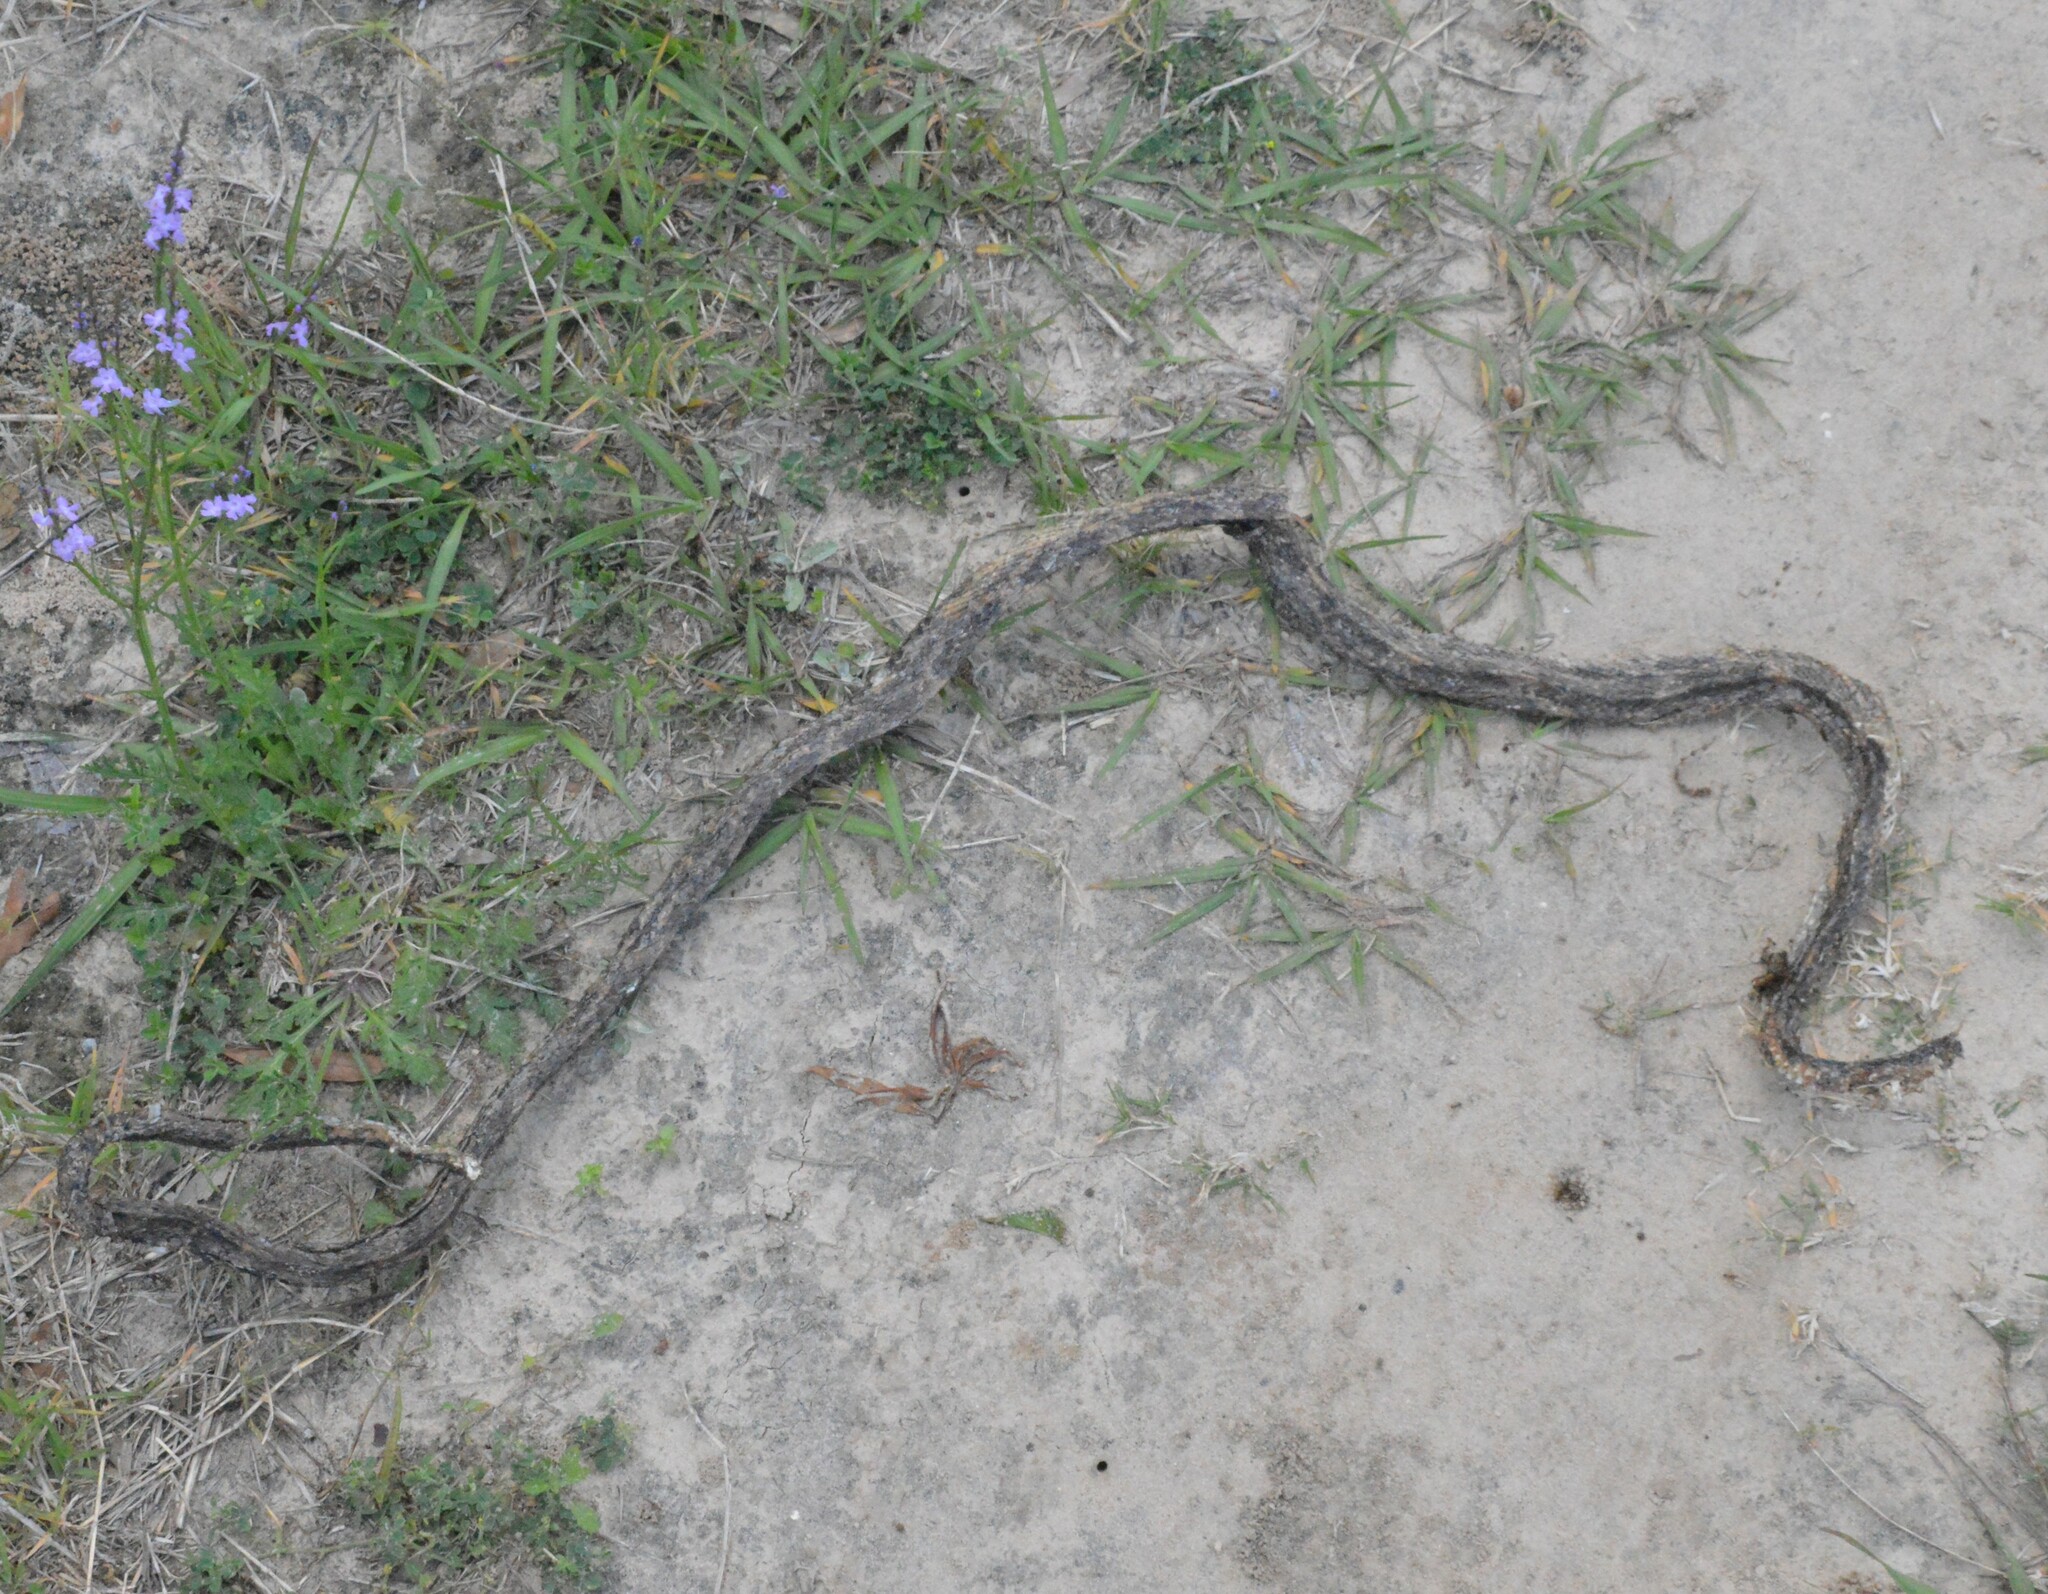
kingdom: Animalia
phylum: Chordata
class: Squamata
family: Colubridae
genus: Pantherophis
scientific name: Pantherophis obsoletus
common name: Black rat snake
